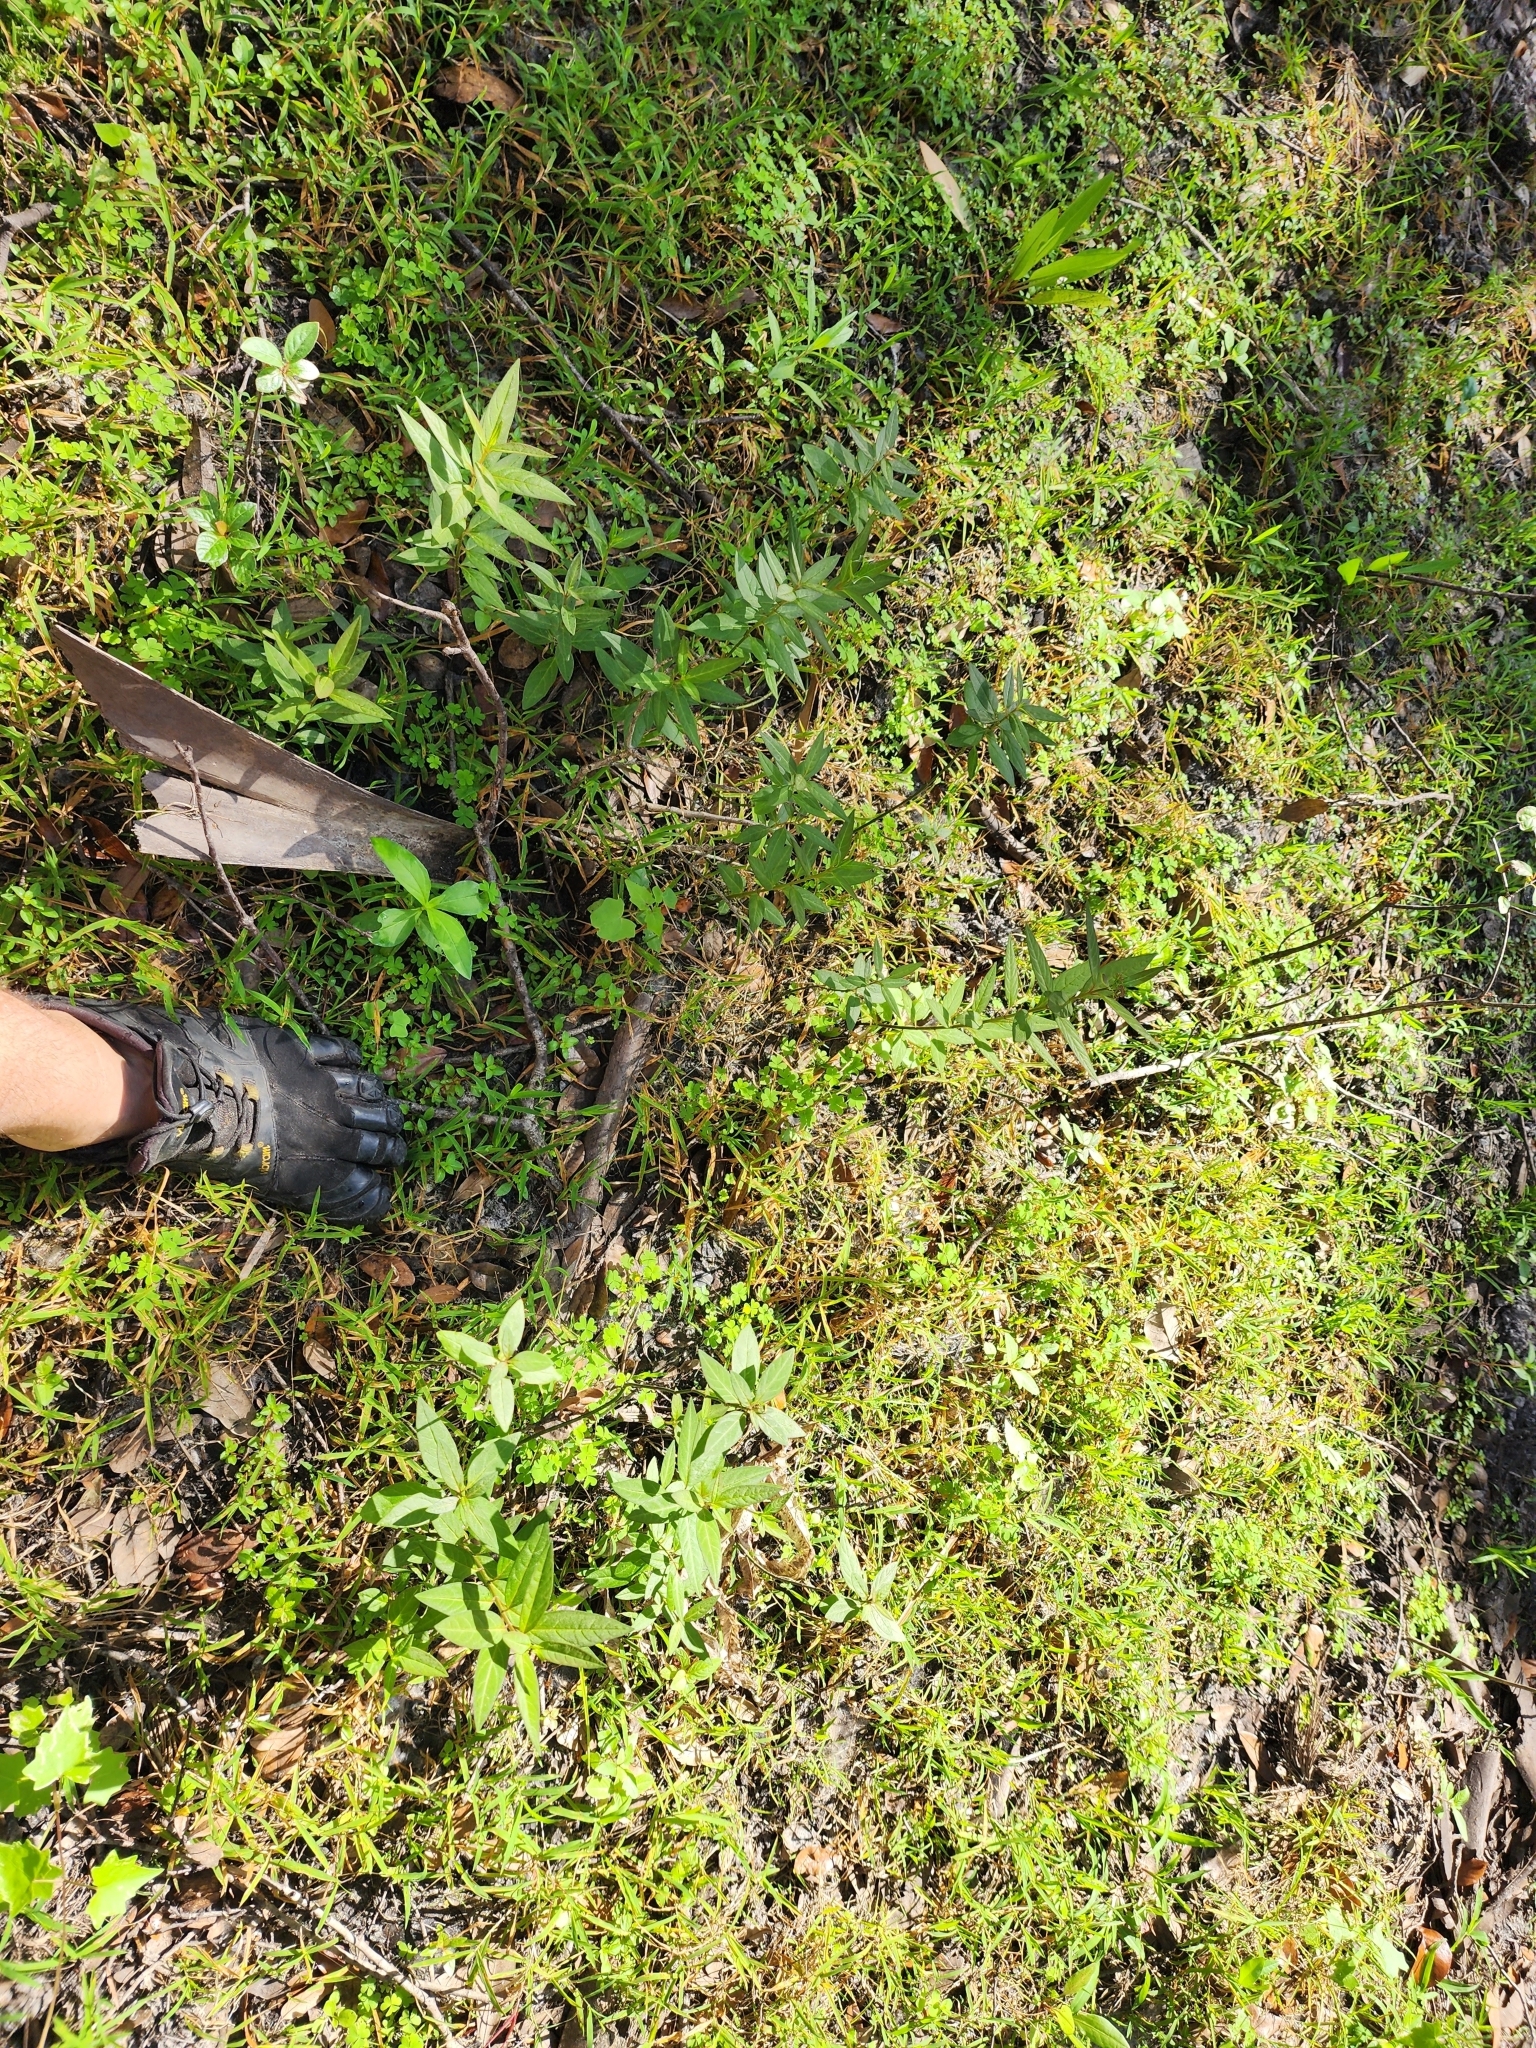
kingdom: Plantae
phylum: Tracheophyta
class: Magnoliopsida
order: Gentianales
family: Apocynaceae
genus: Asclepias
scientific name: Asclepias perennis
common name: Smooth-seed milkweed
